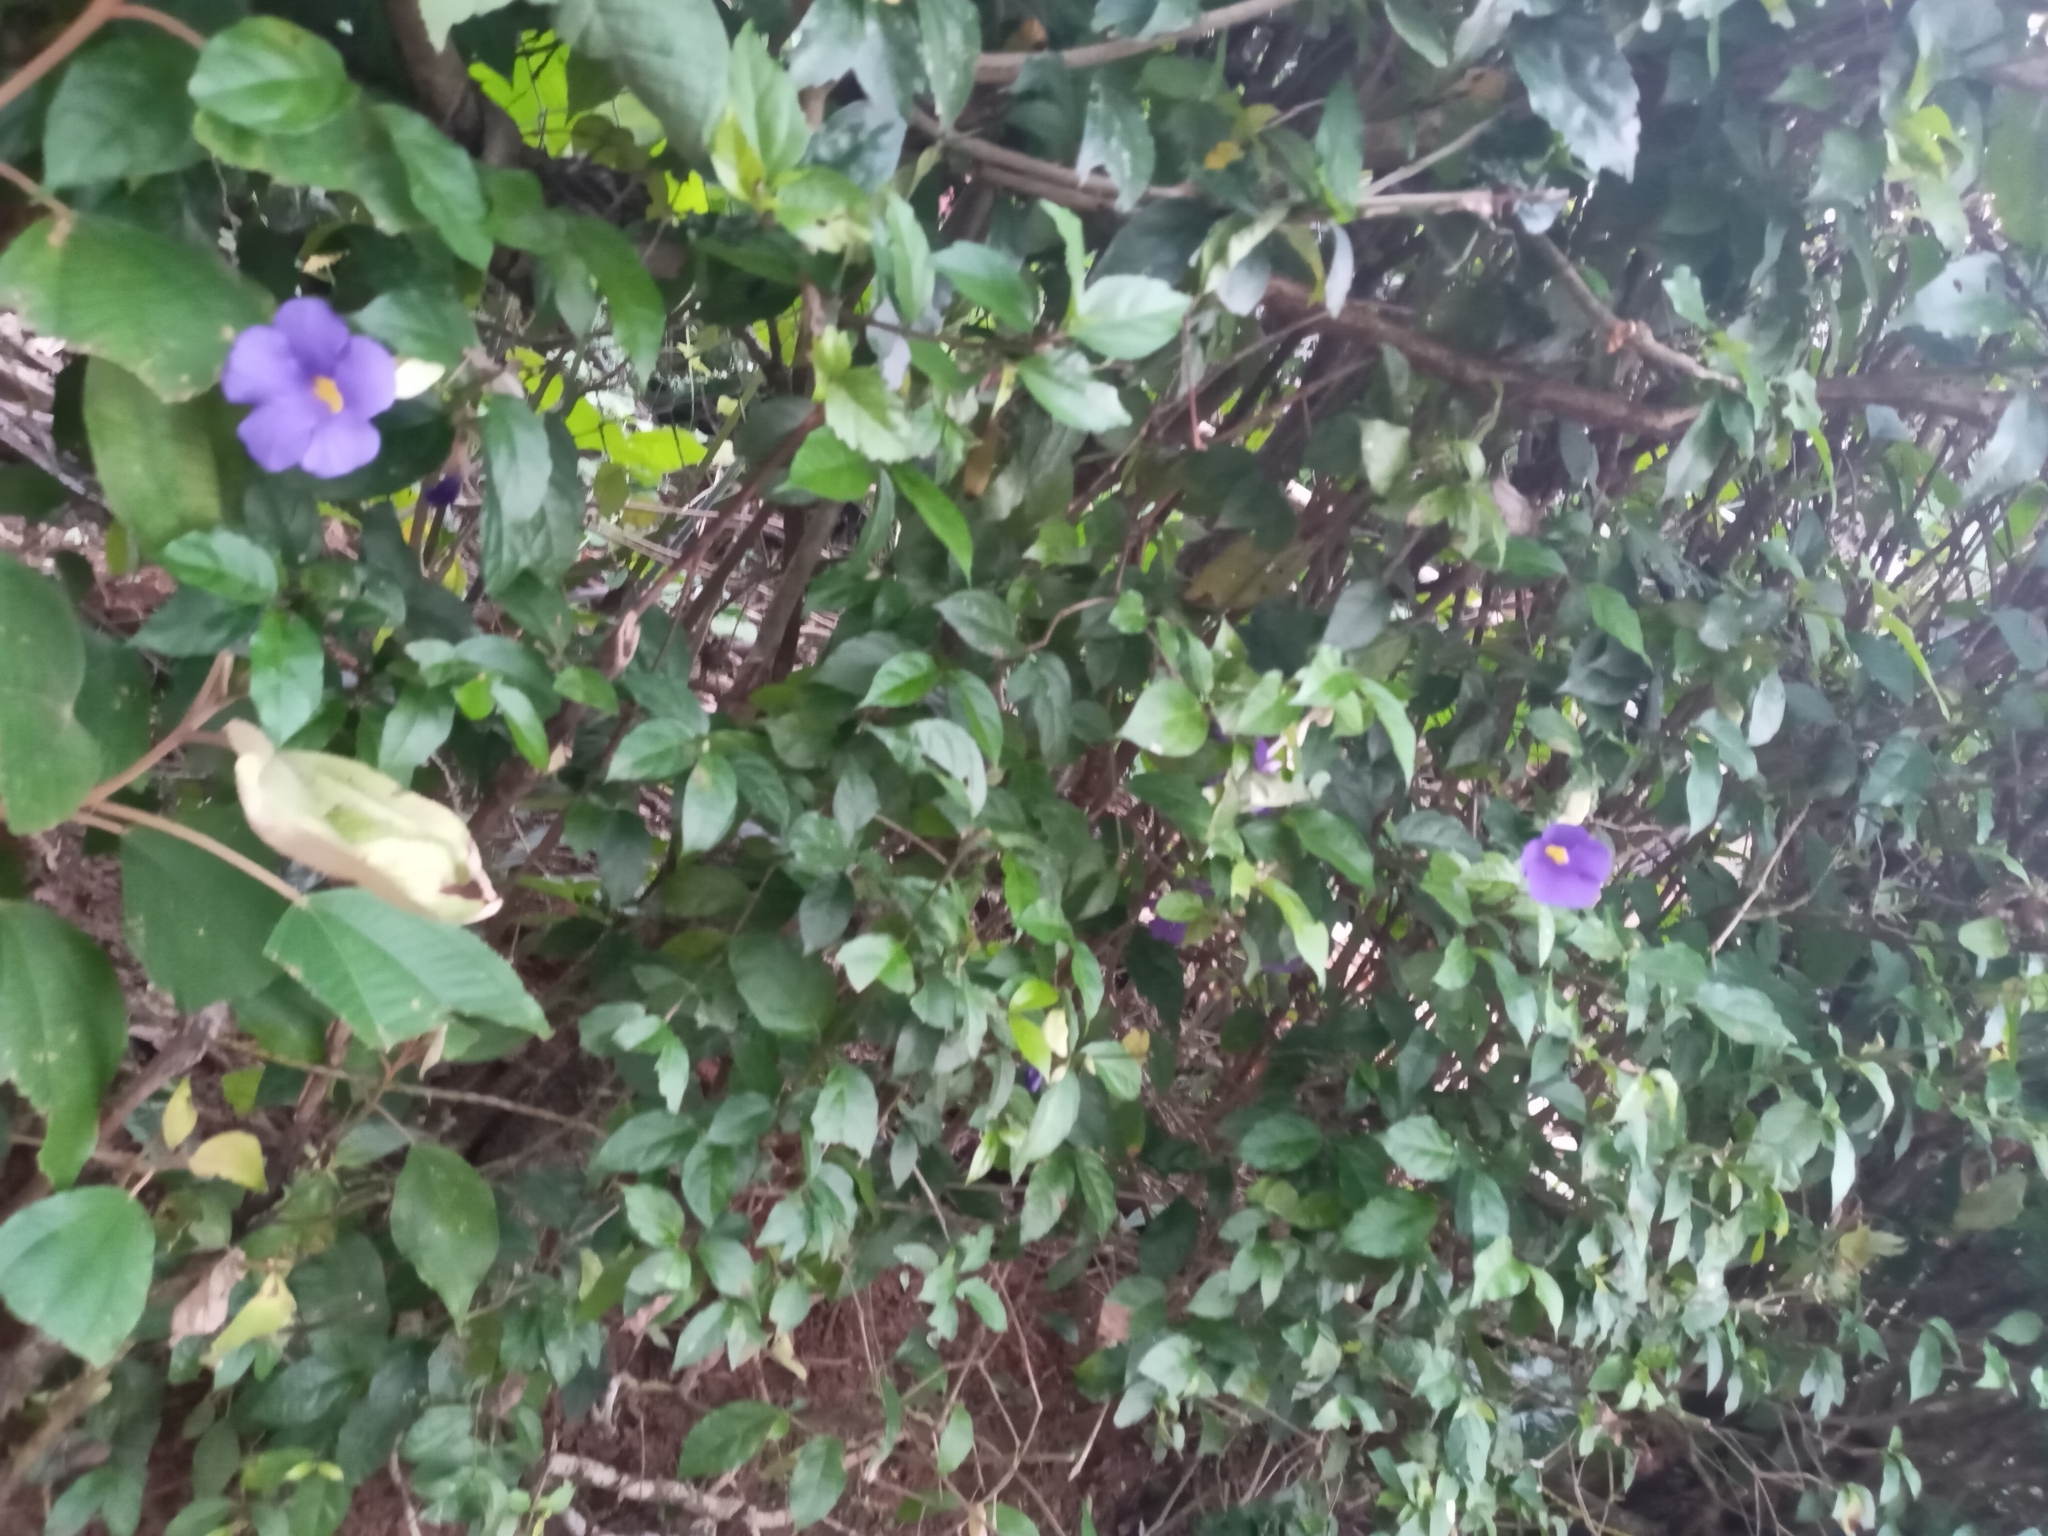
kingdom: Plantae
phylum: Tracheophyta
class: Magnoliopsida
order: Lamiales
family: Acanthaceae
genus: Thunbergia
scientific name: Thunbergia erecta
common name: Bush clockvine
